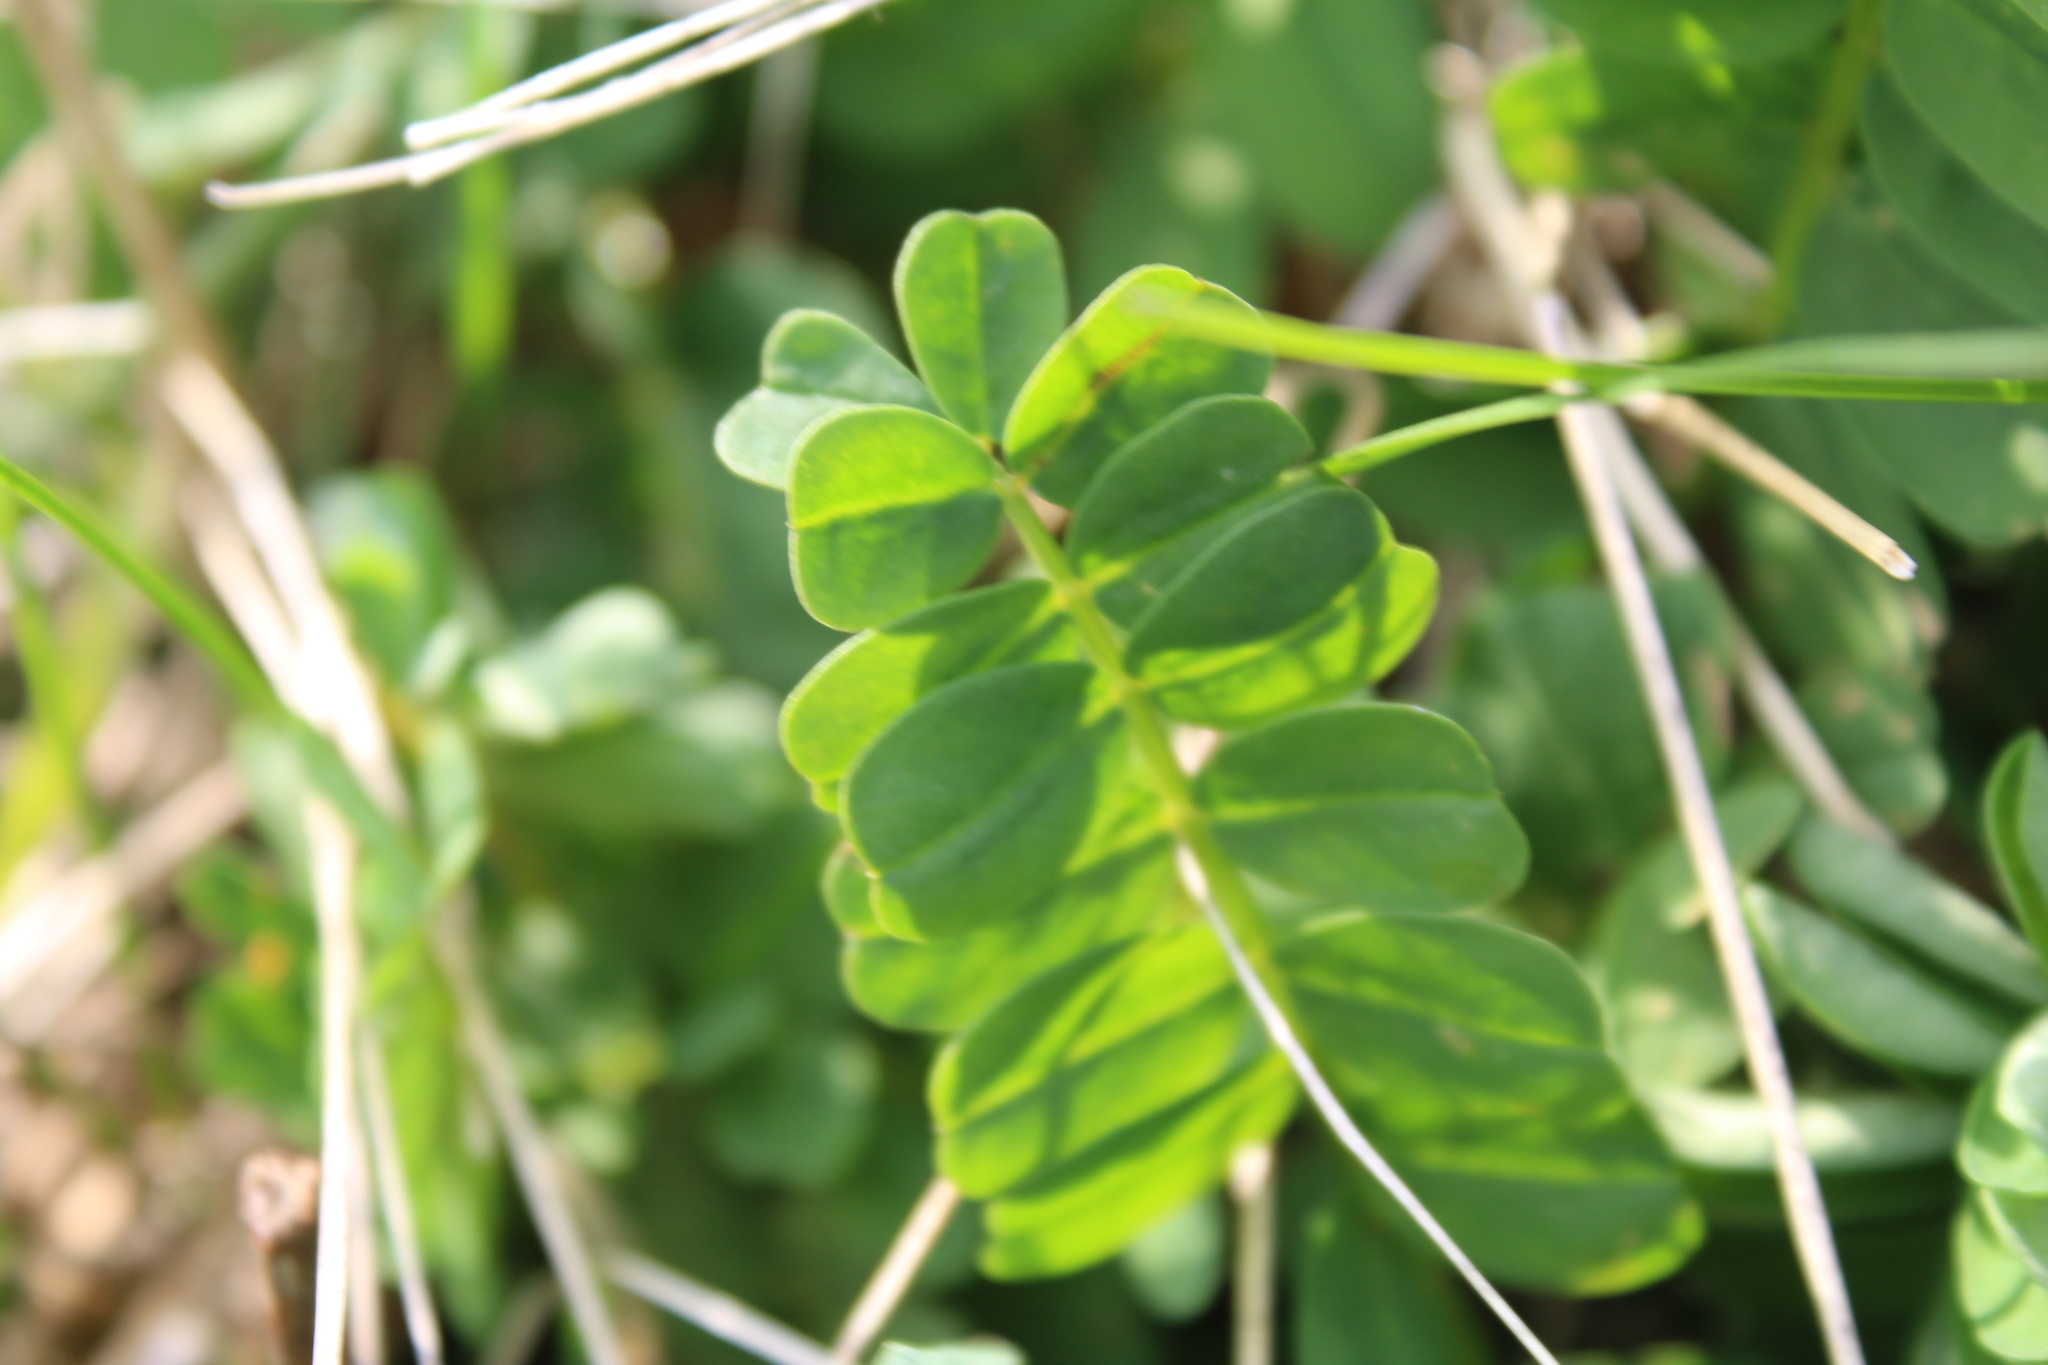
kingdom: Plantae
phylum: Tracheophyta
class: Magnoliopsida
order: Fabales
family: Fabaceae
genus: Coronilla
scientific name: Coronilla varia
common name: Crownvetch
